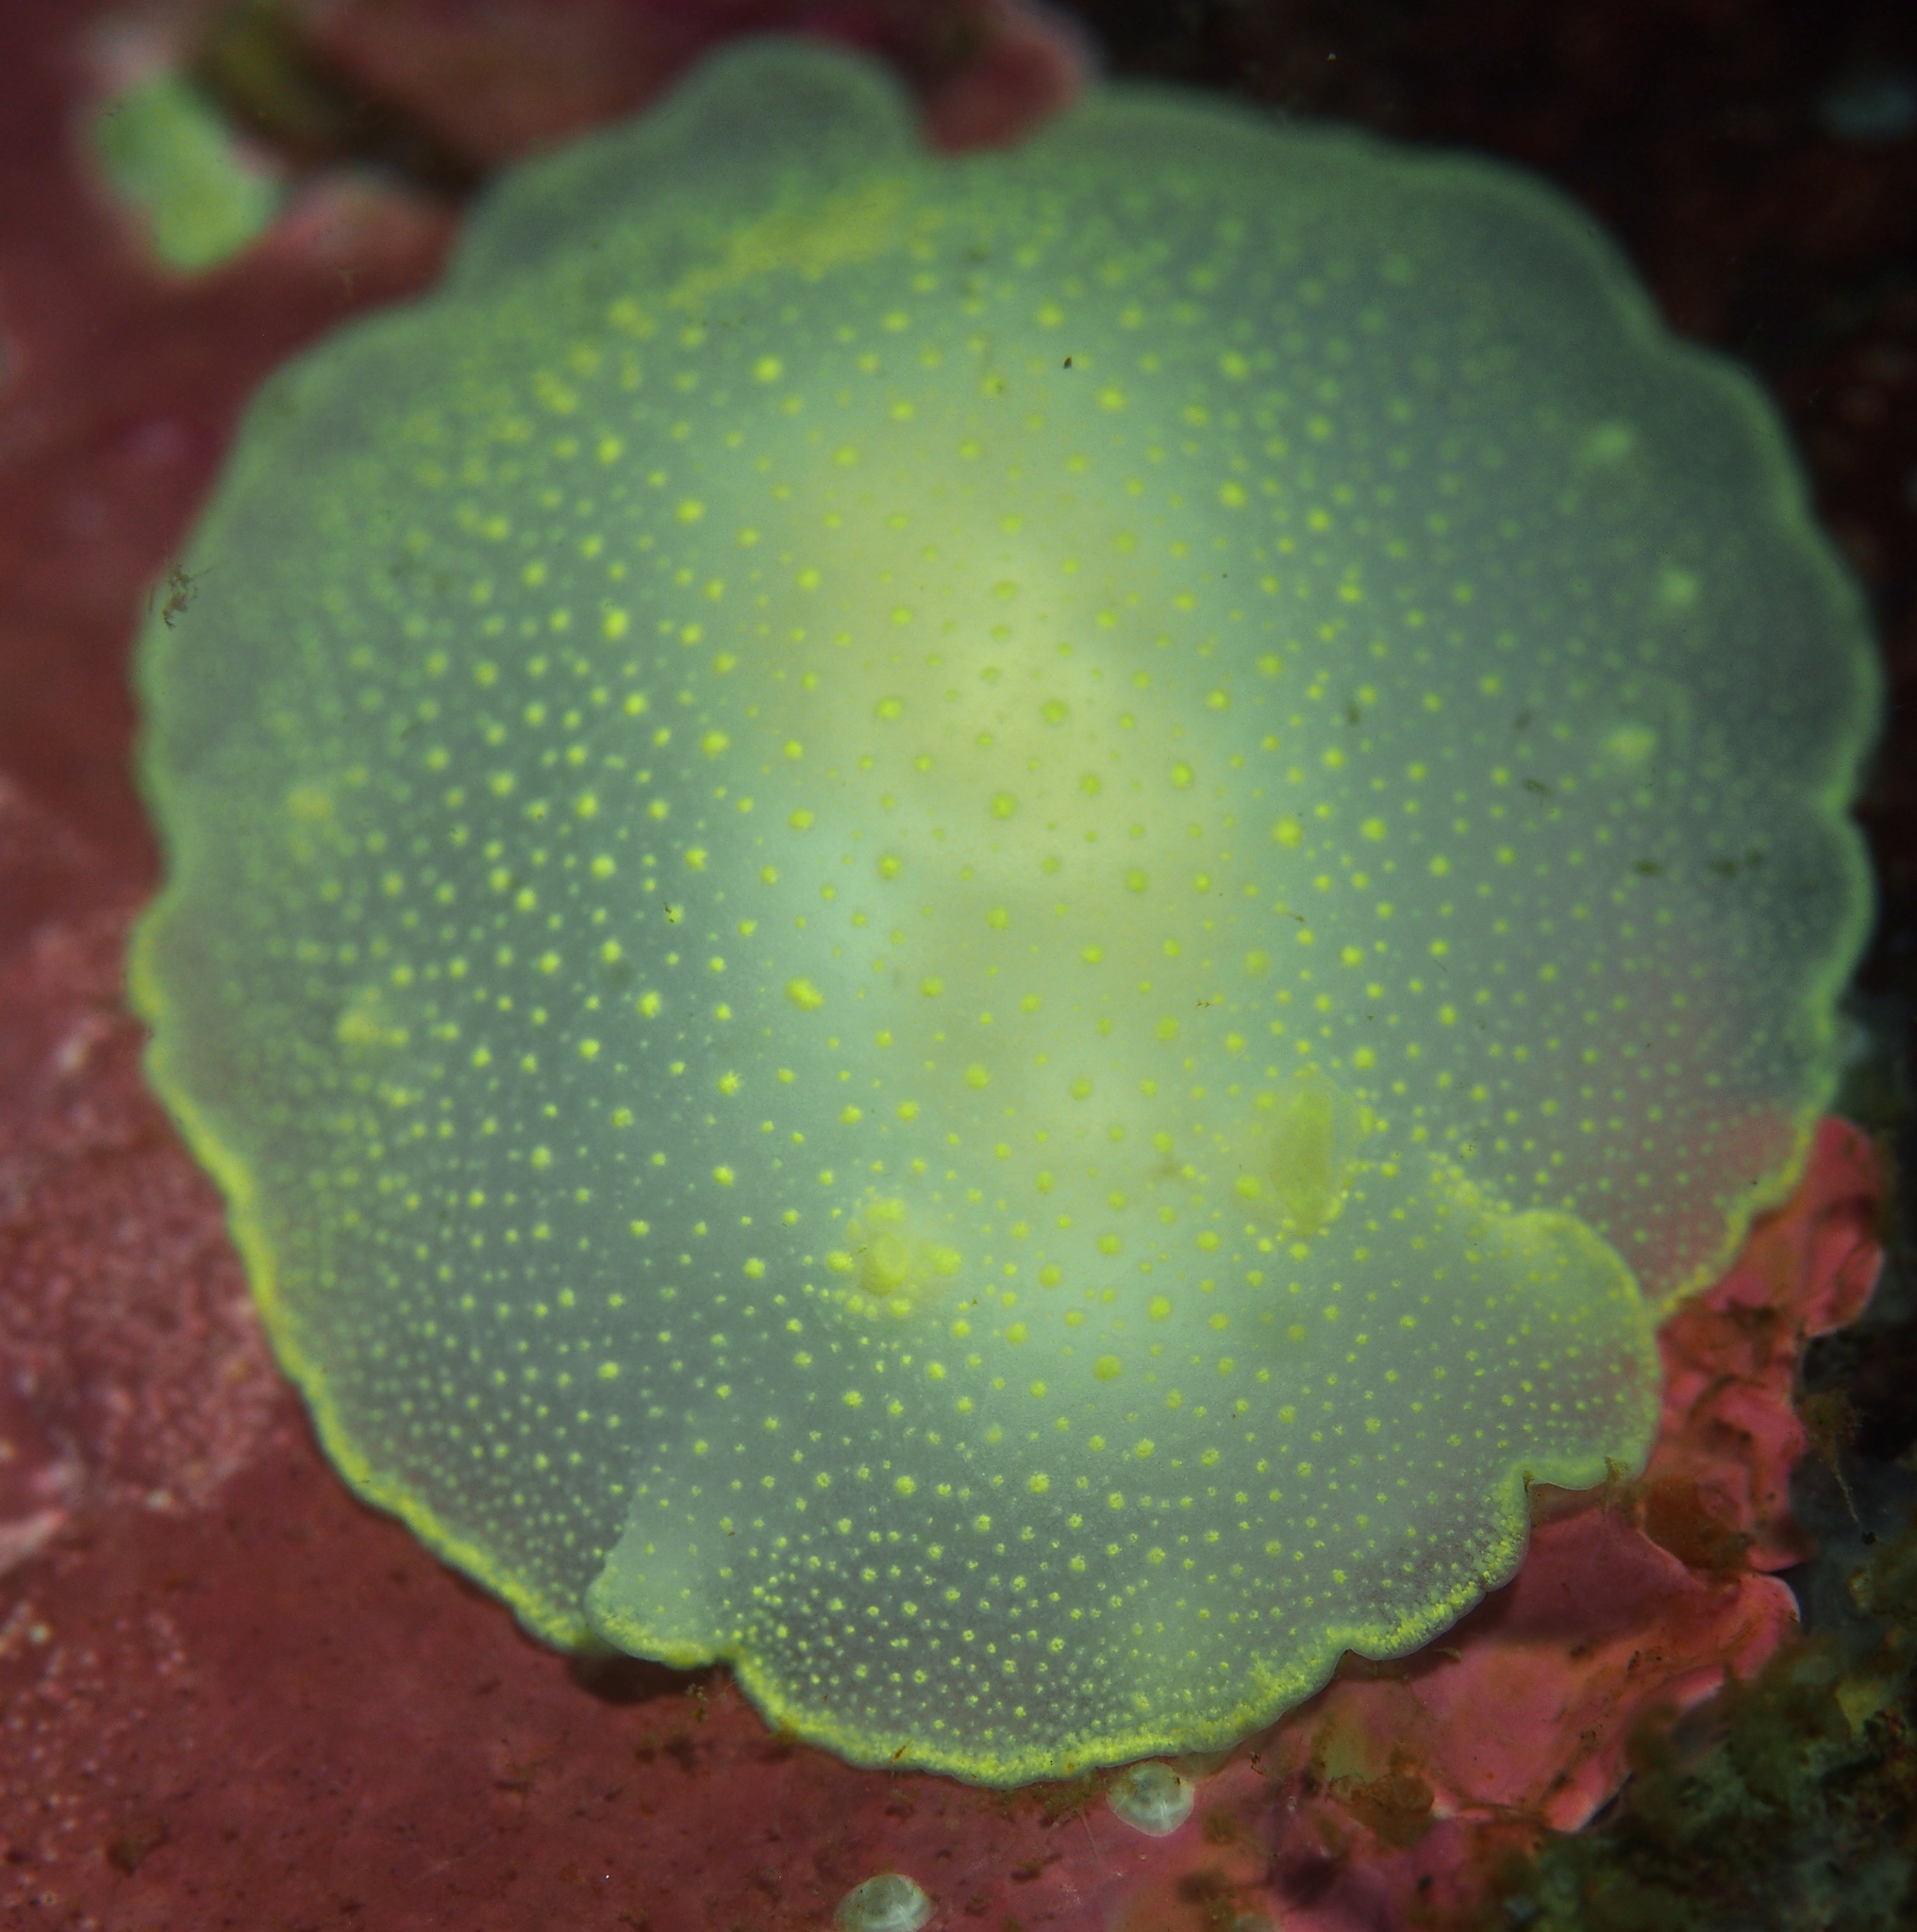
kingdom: Animalia
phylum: Mollusca
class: Gastropoda
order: Nudibranchia
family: Cadlinidae
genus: Cadlina
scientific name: Cadlina laevis
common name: White atlantic cadlina
